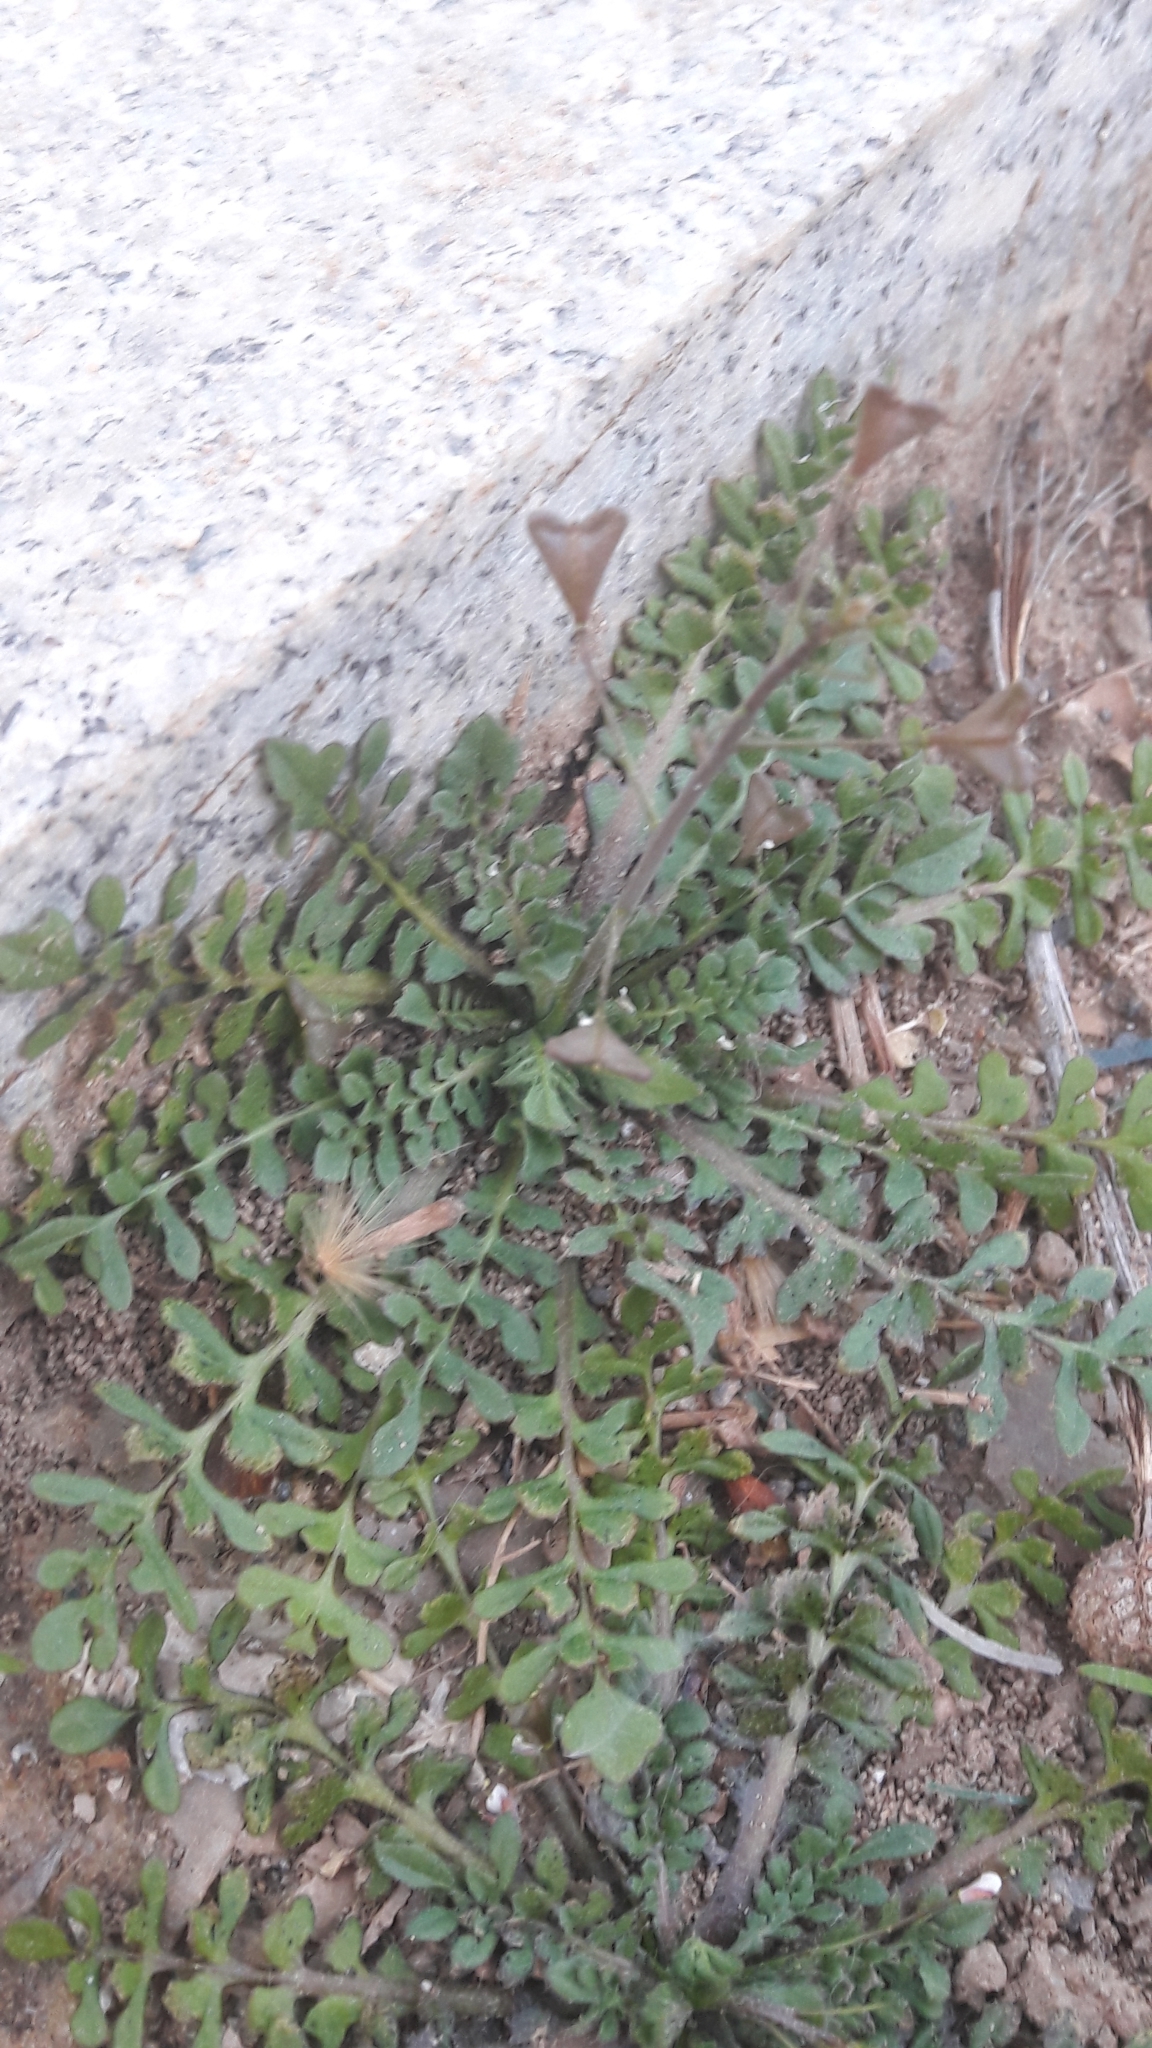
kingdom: Plantae
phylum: Tracheophyta
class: Magnoliopsida
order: Brassicales
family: Brassicaceae
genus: Capsella
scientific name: Capsella bursa-pastoris
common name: Shepherd's purse
